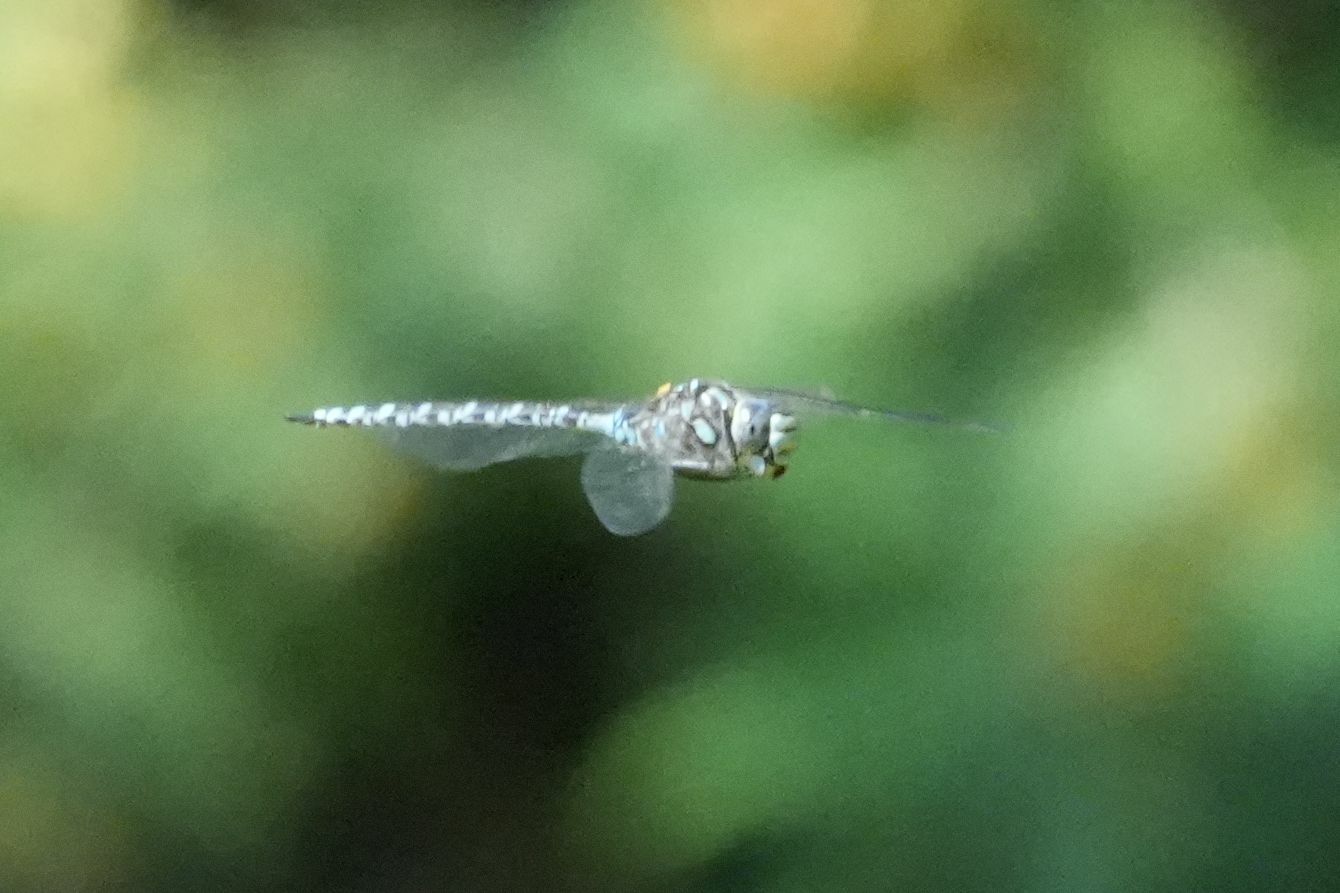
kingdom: Animalia
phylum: Arthropoda
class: Insecta
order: Odonata
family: Aeshnidae
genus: Aeshna
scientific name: Aeshna eremita
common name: Lake darner
